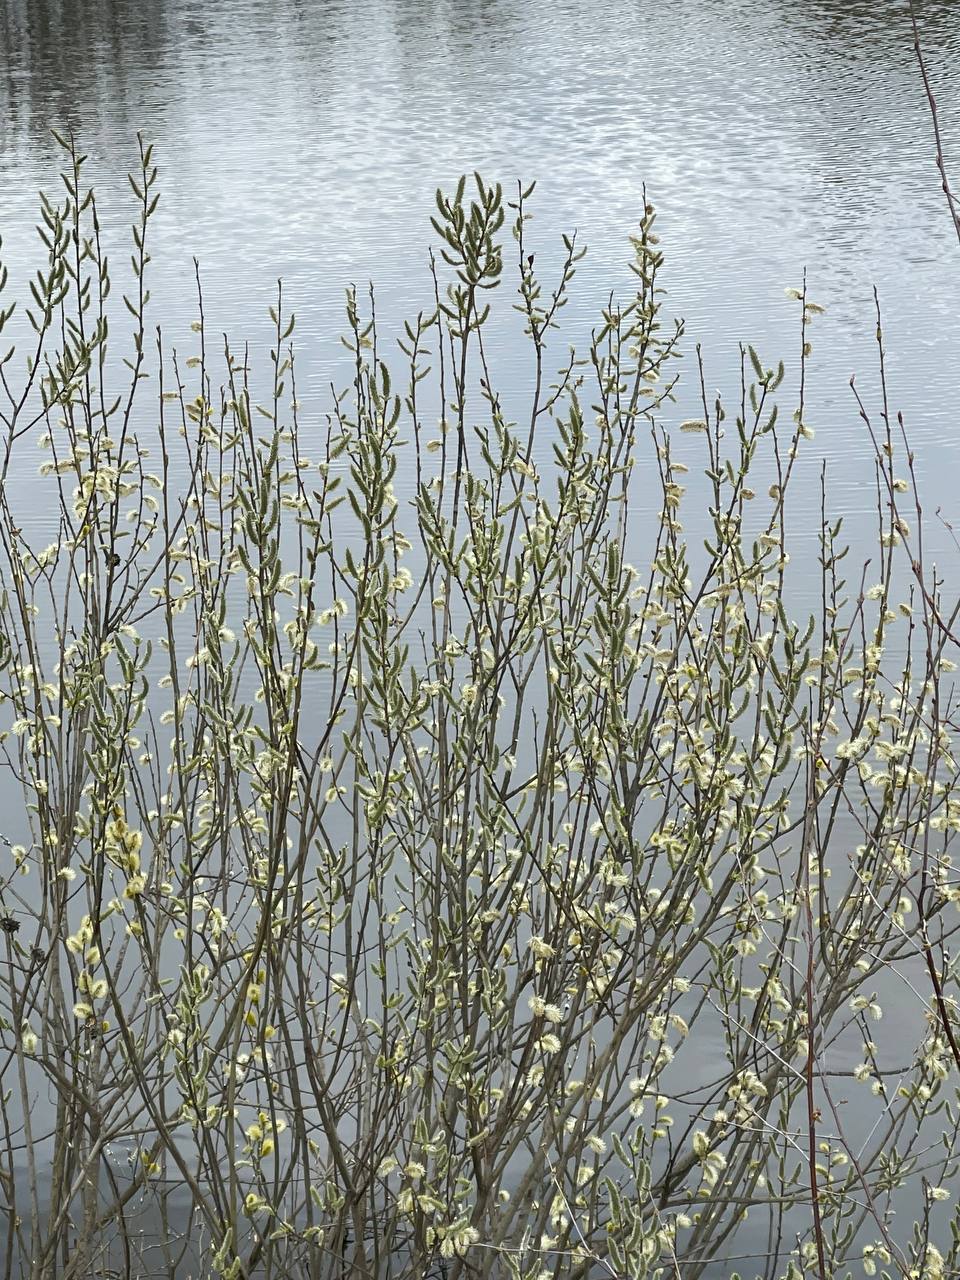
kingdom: Plantae
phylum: Tracheophyta
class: Magnoliopsida
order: Malpighiales
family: Salicaceae
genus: Salix
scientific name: Salix cinerea
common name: Common sallow
